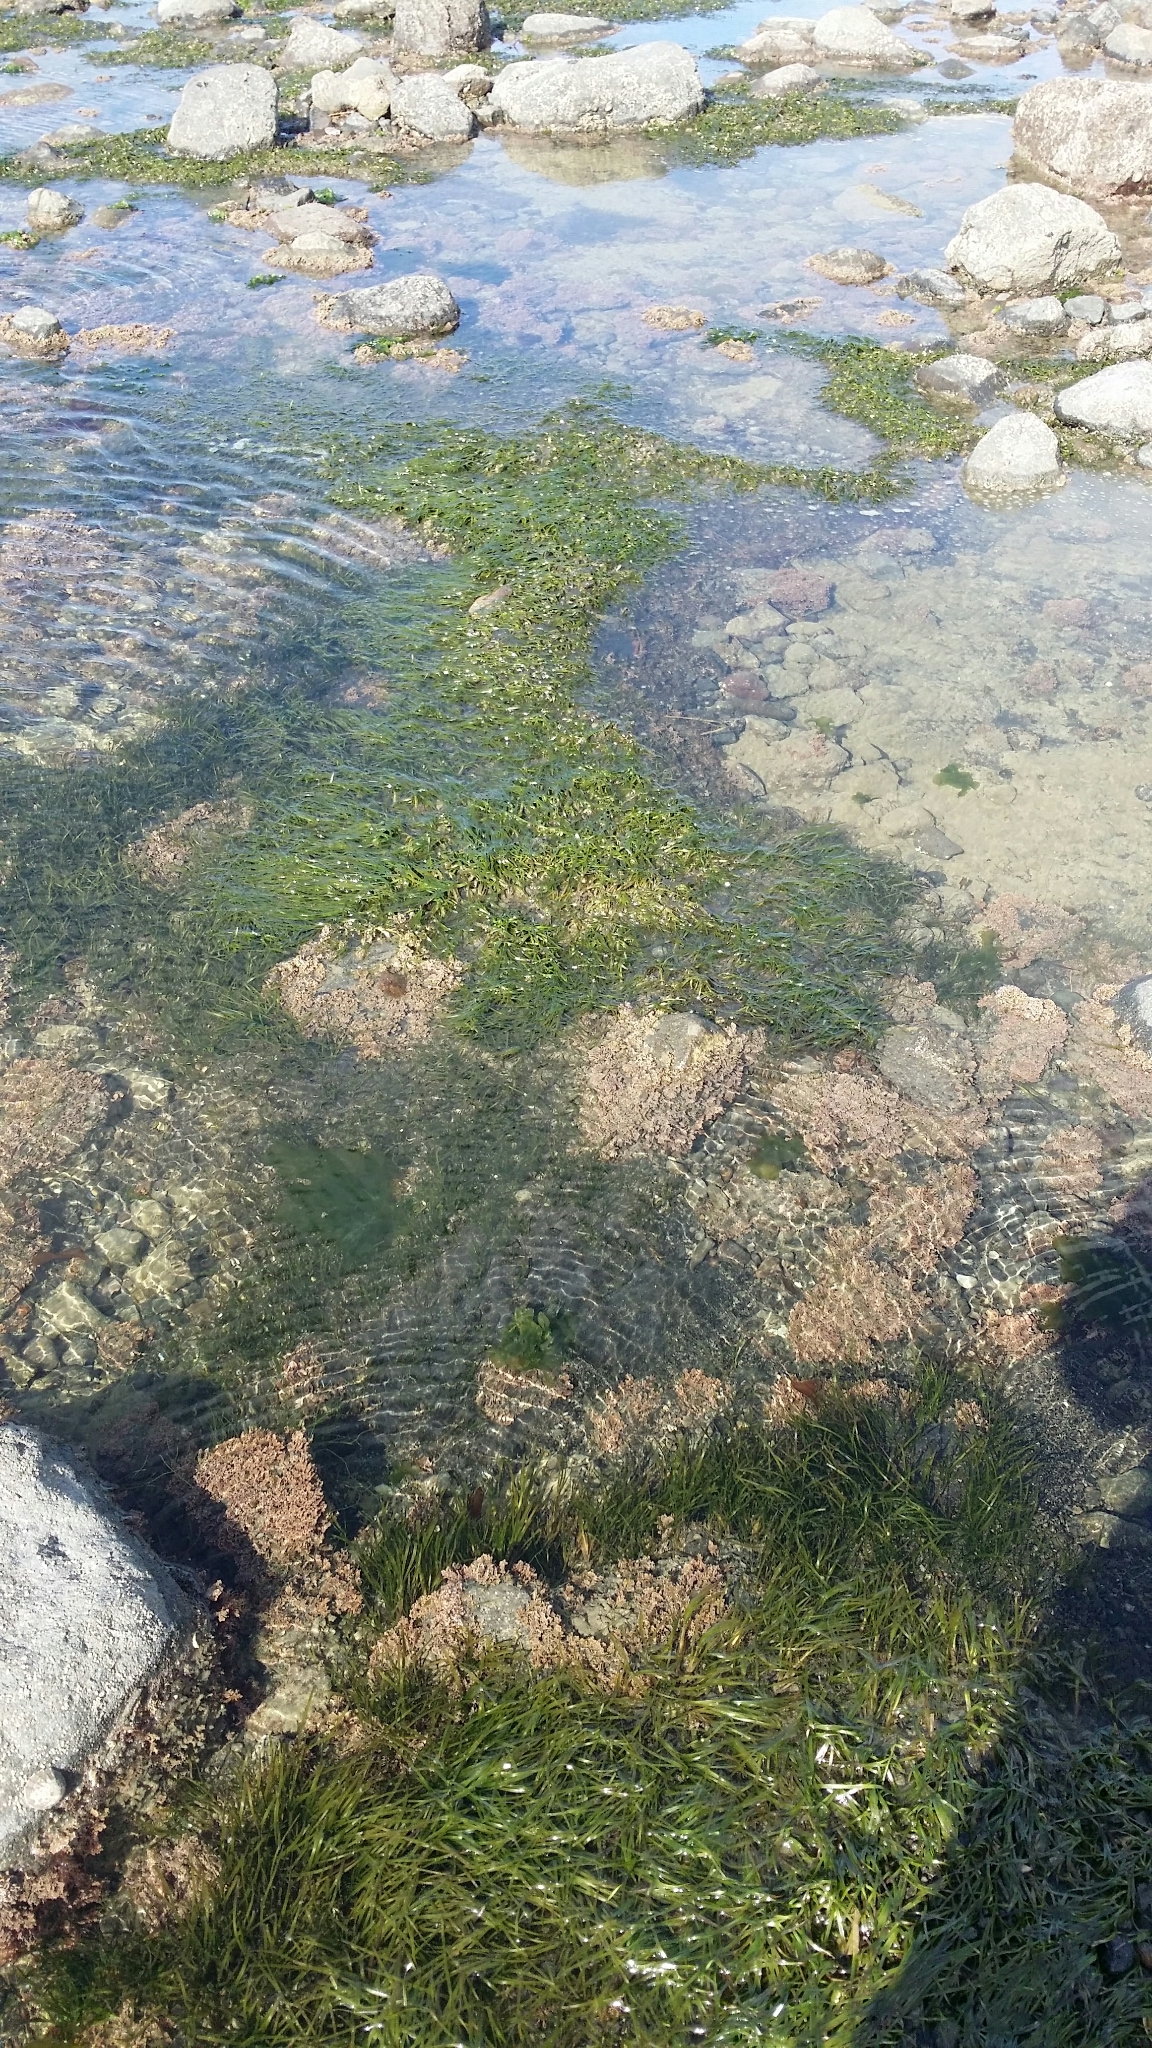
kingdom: Plantae
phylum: Tracheophyta
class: Liliopsida
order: Alismatales
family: Zosteraceae
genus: Zostera
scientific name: Zostera novazelandica
